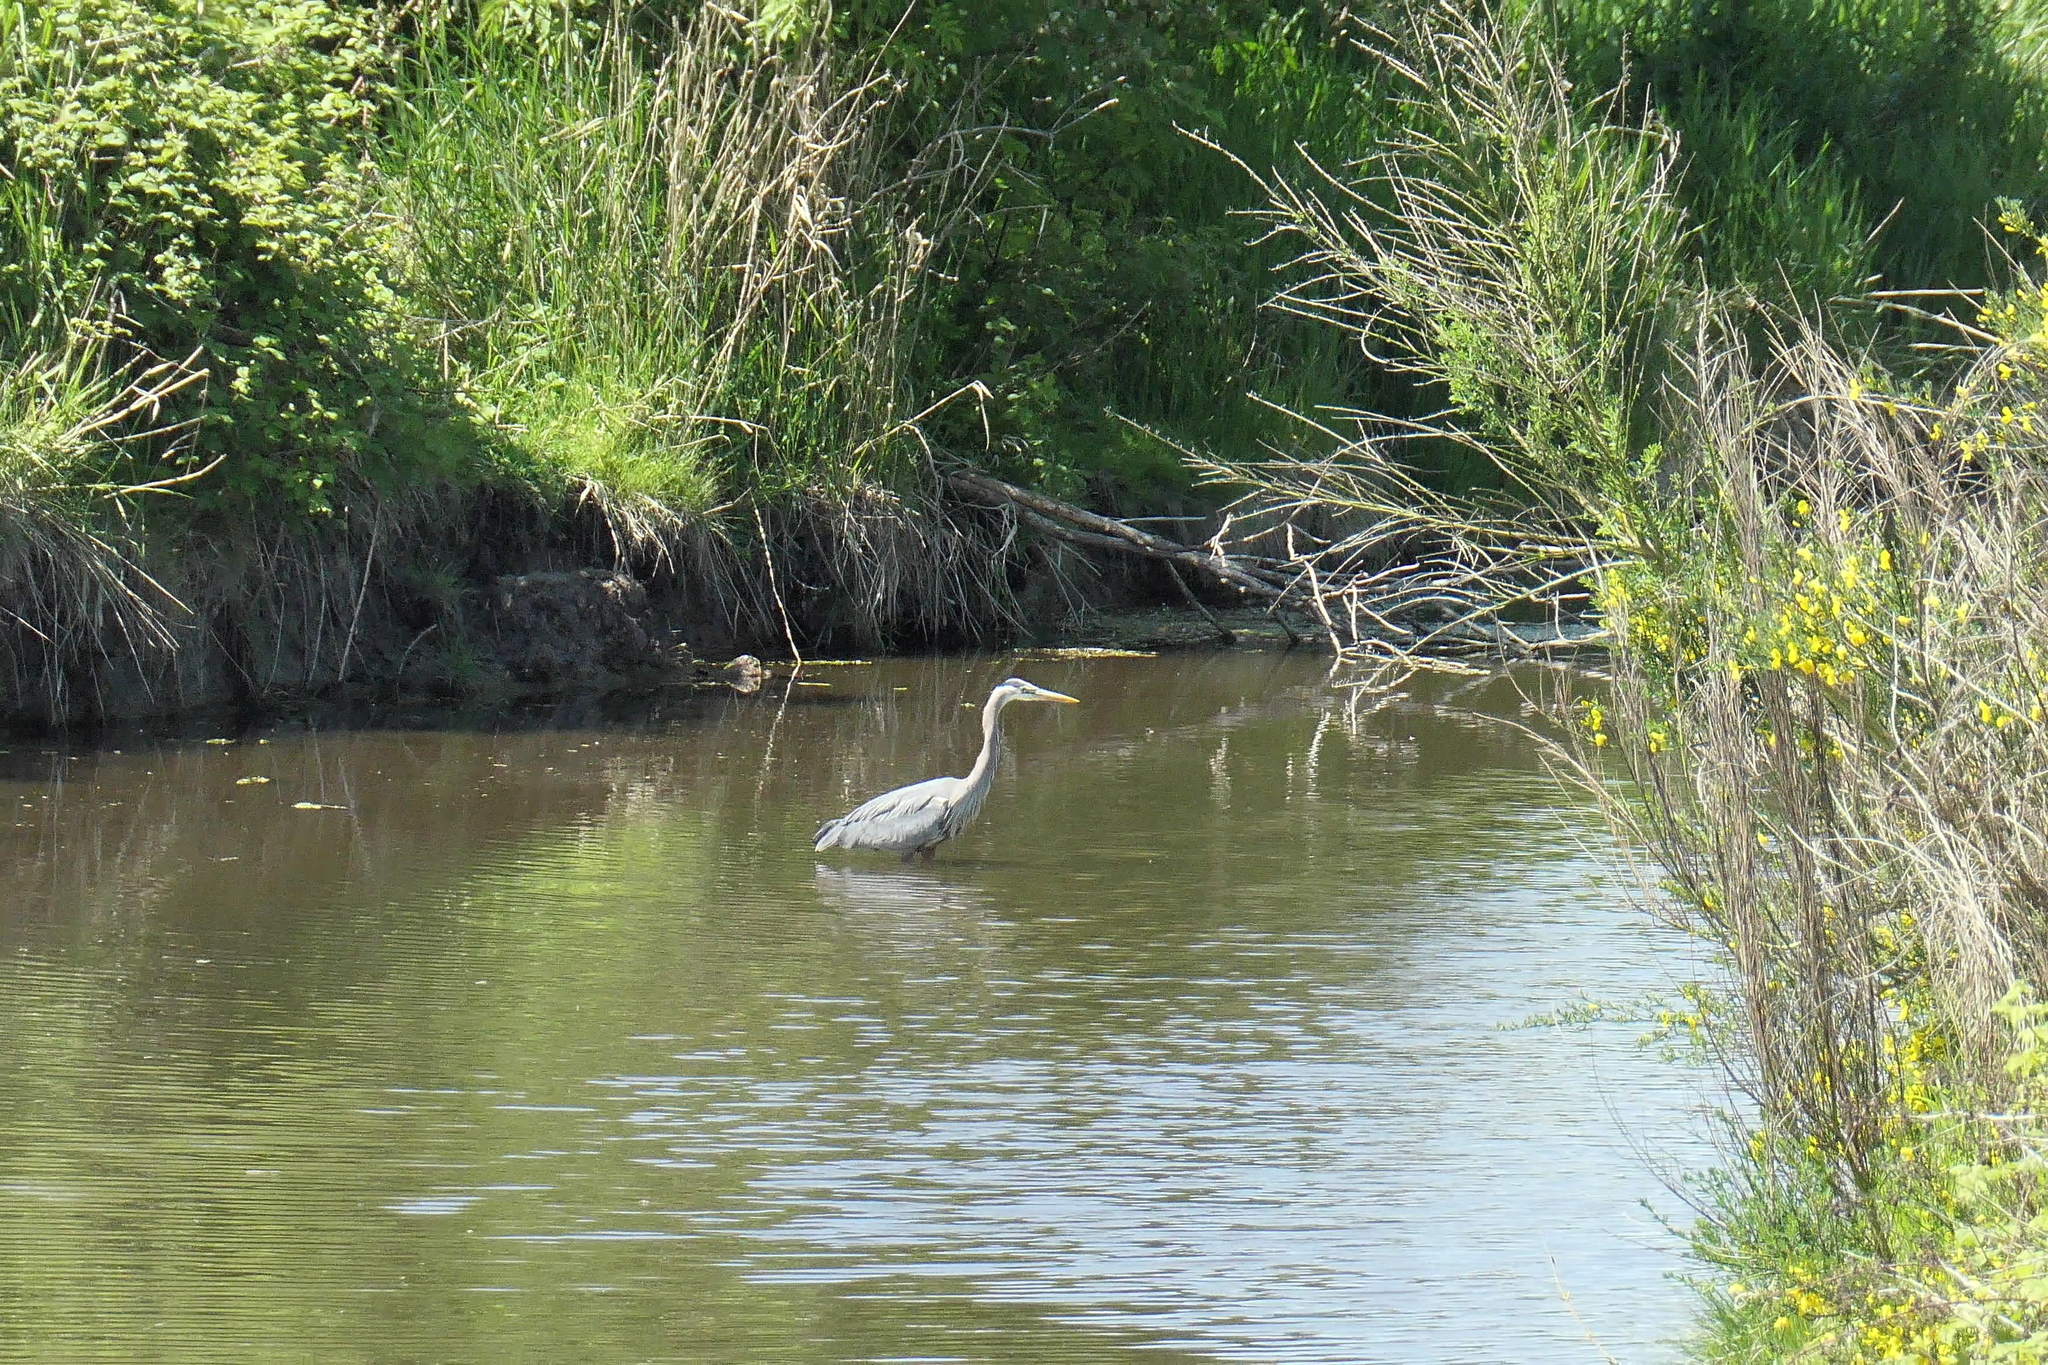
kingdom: Animalia
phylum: Chordata
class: Aves
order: Pelecaniformes
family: Ardeidae
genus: Ardea
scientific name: Ardea herodias
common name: Great blue heron
